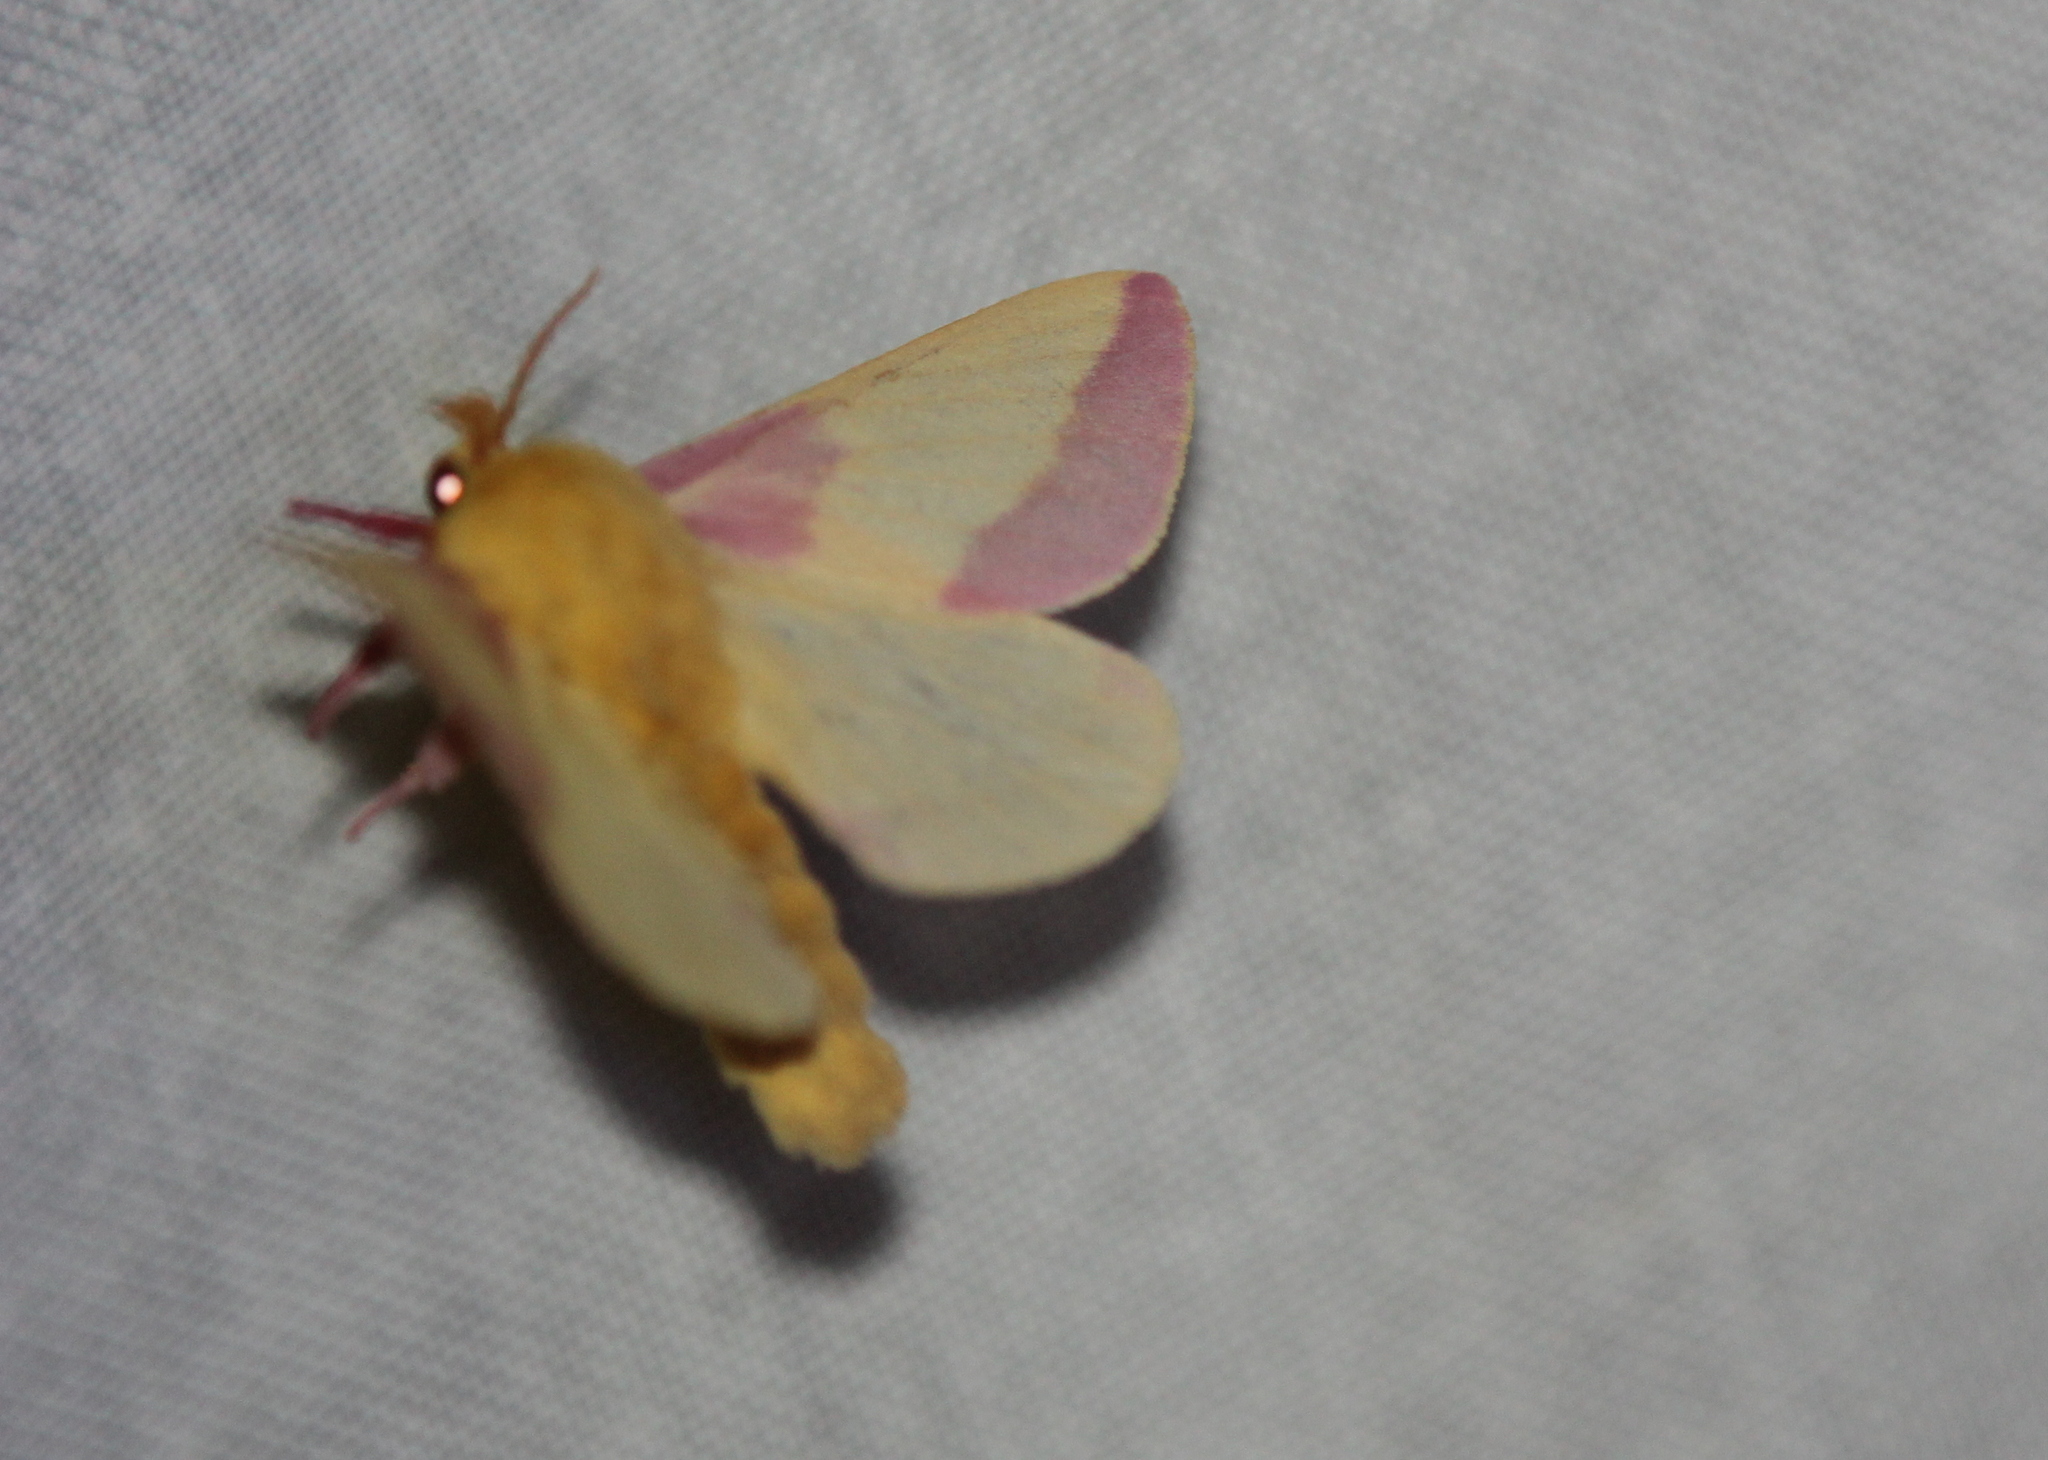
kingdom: Animalia
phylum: Arthropoda
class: Insecta
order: Lepidoptera
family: Saturniidae
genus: Dryocampa
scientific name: Dryocampa rubicunda
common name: Rosy maple moth
